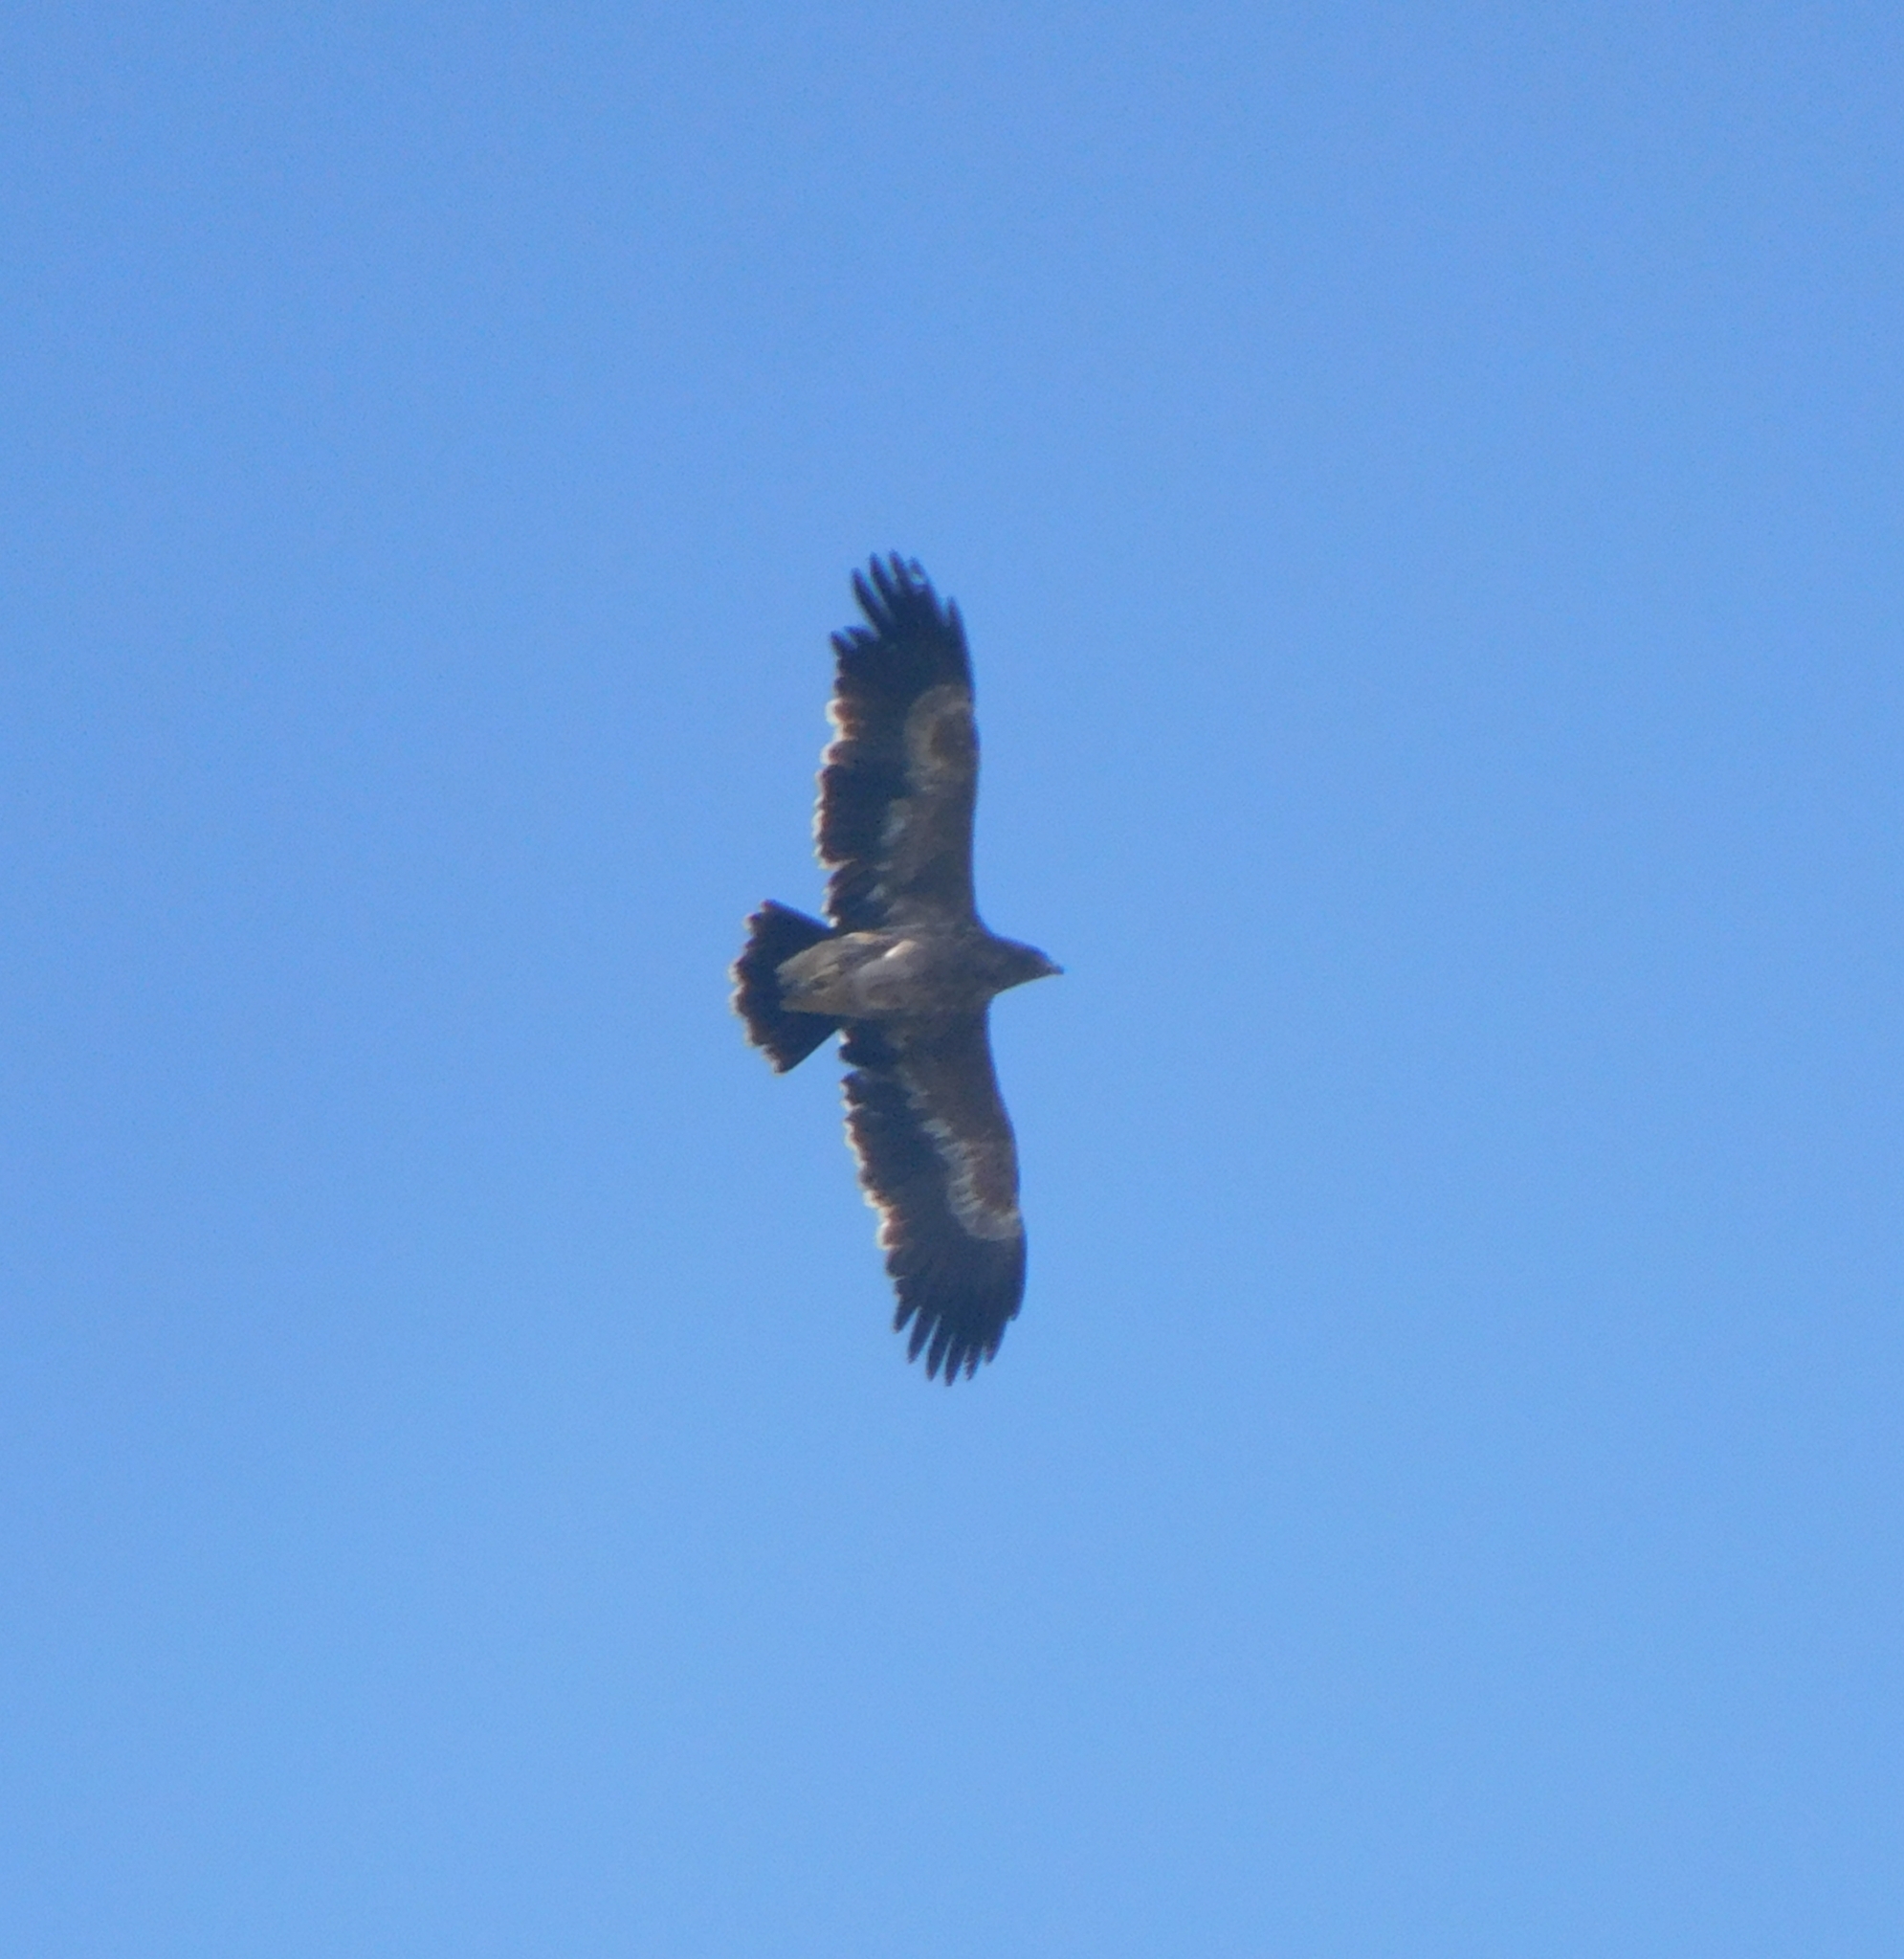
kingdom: Animalia
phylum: Chordata
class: Aves
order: Accipitriformes
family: Accipitridae
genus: Aquila
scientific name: Aquila nipalensis
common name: Steppe eagle
